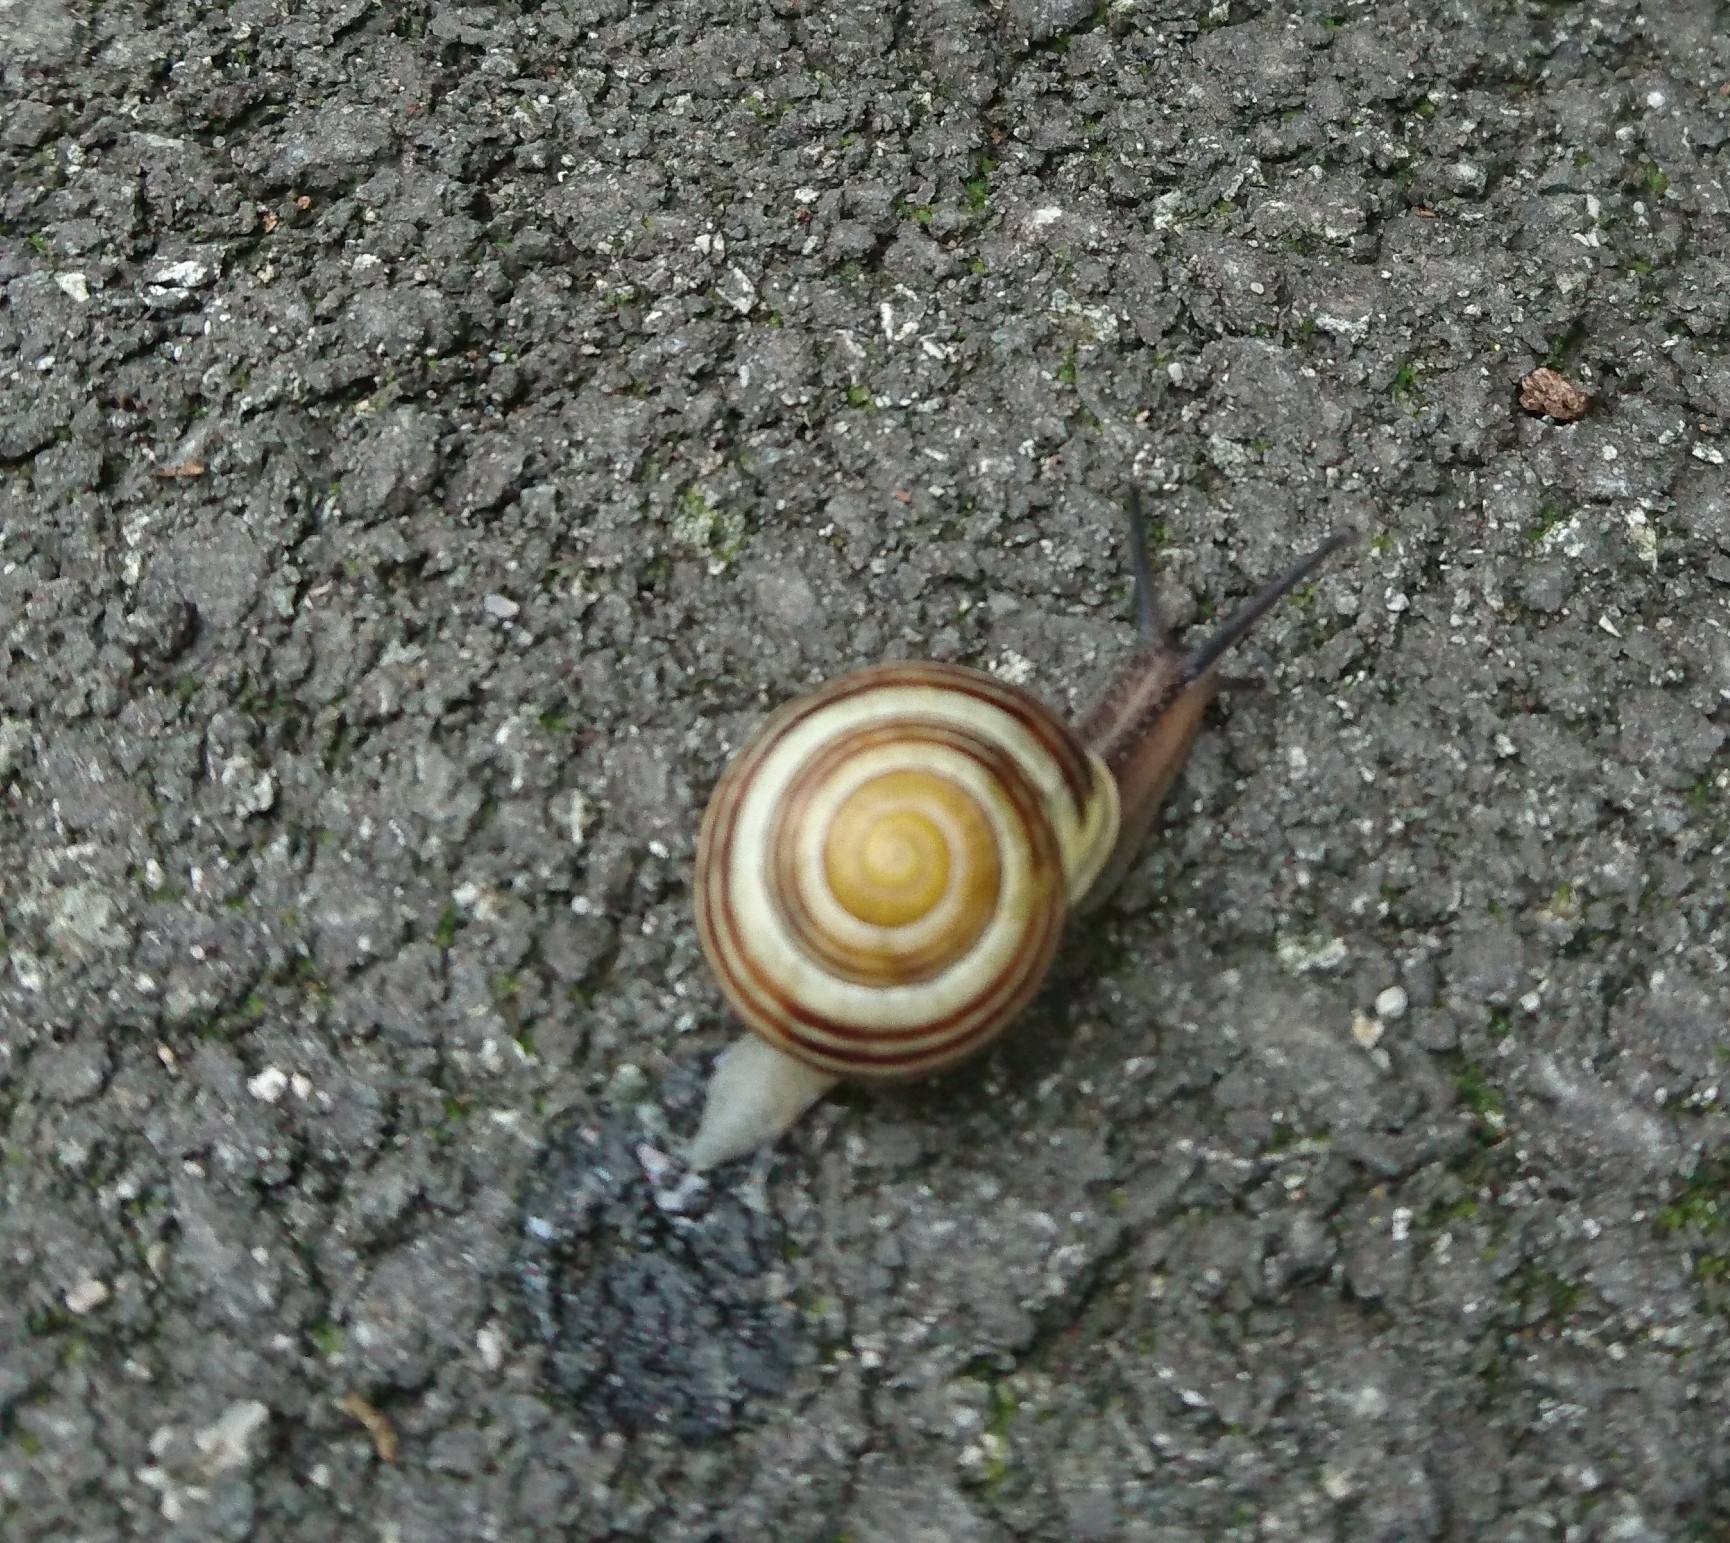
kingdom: Animalia
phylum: Mollusca
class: Gastropoda
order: Stylommatophora
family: Helicidae
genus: Cepaea
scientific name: Cepaea hortensis
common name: White-lip gardensnail
